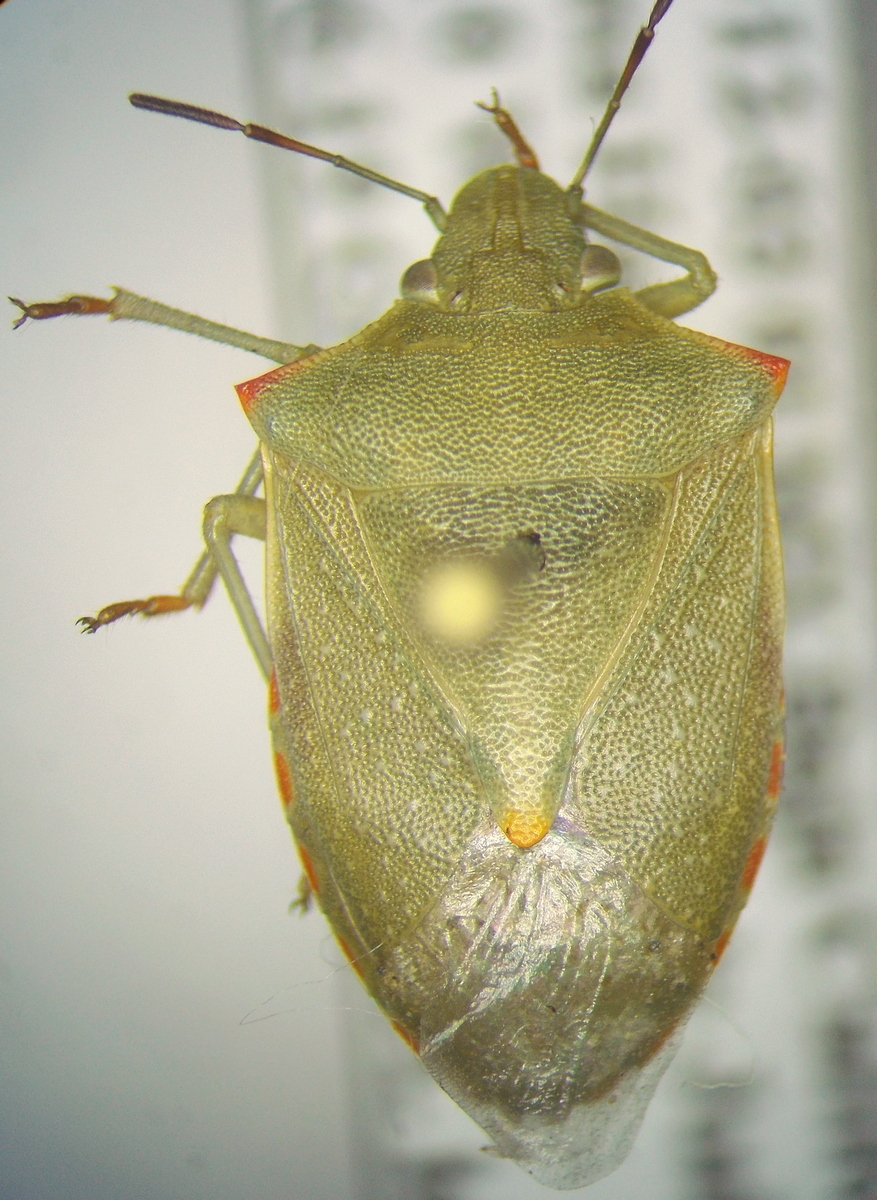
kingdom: Animalia
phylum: Arthropoda
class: Insecta
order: Hemiptera
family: Pentatomidae
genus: Thyanta
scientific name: Thyanta custator
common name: Stink bug
